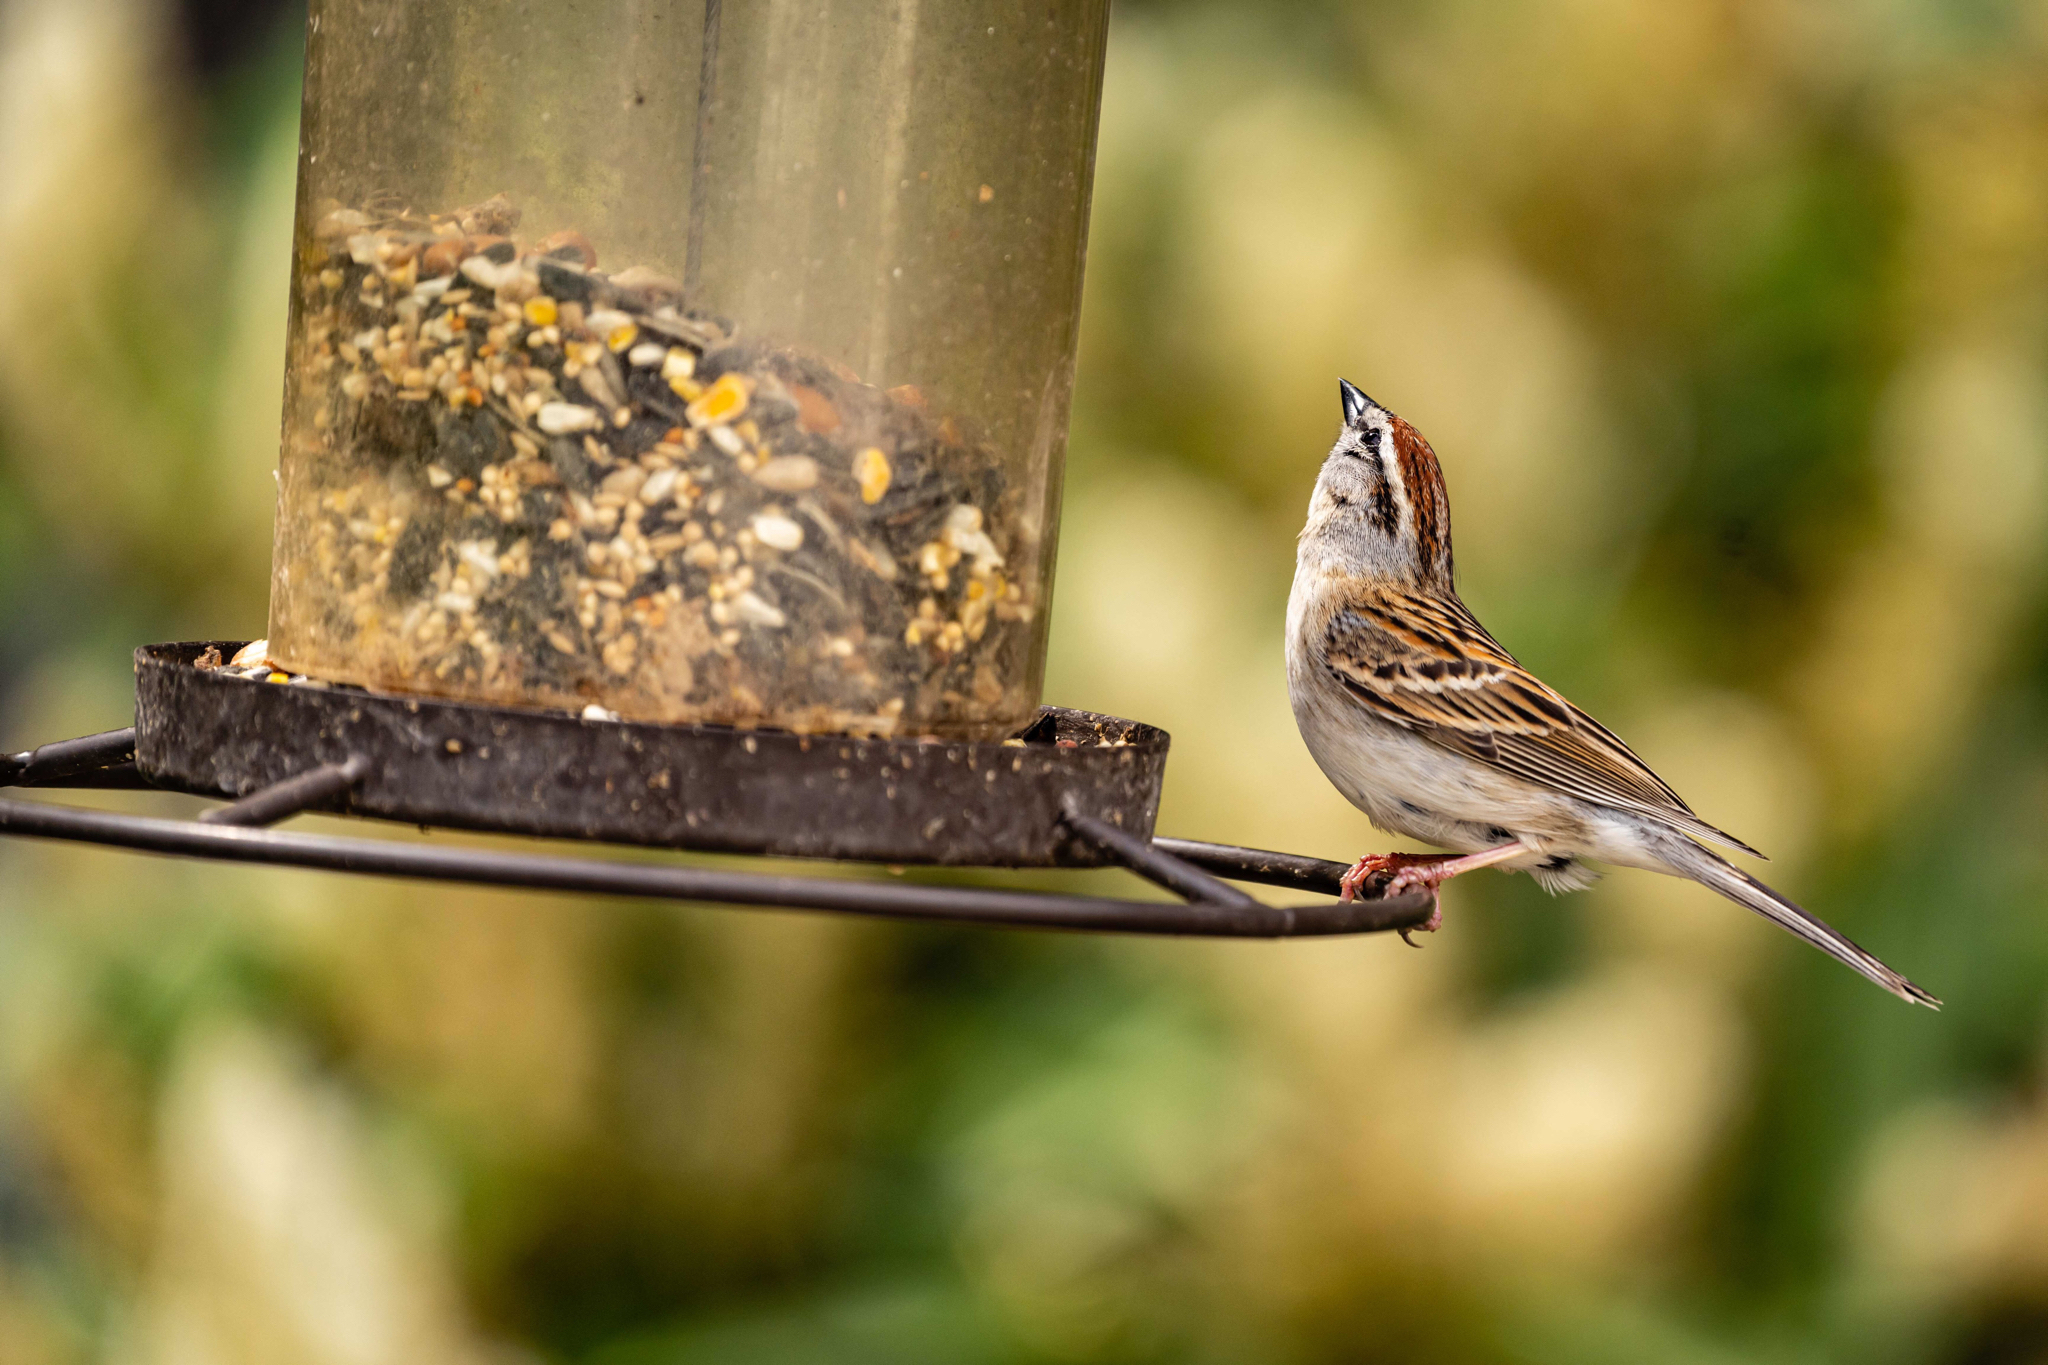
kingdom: Animalia
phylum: Chordata
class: Aves
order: Passeriformes
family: Passerellidae
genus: Spizella
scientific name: Spizella passerina
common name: Chipping sparrow
